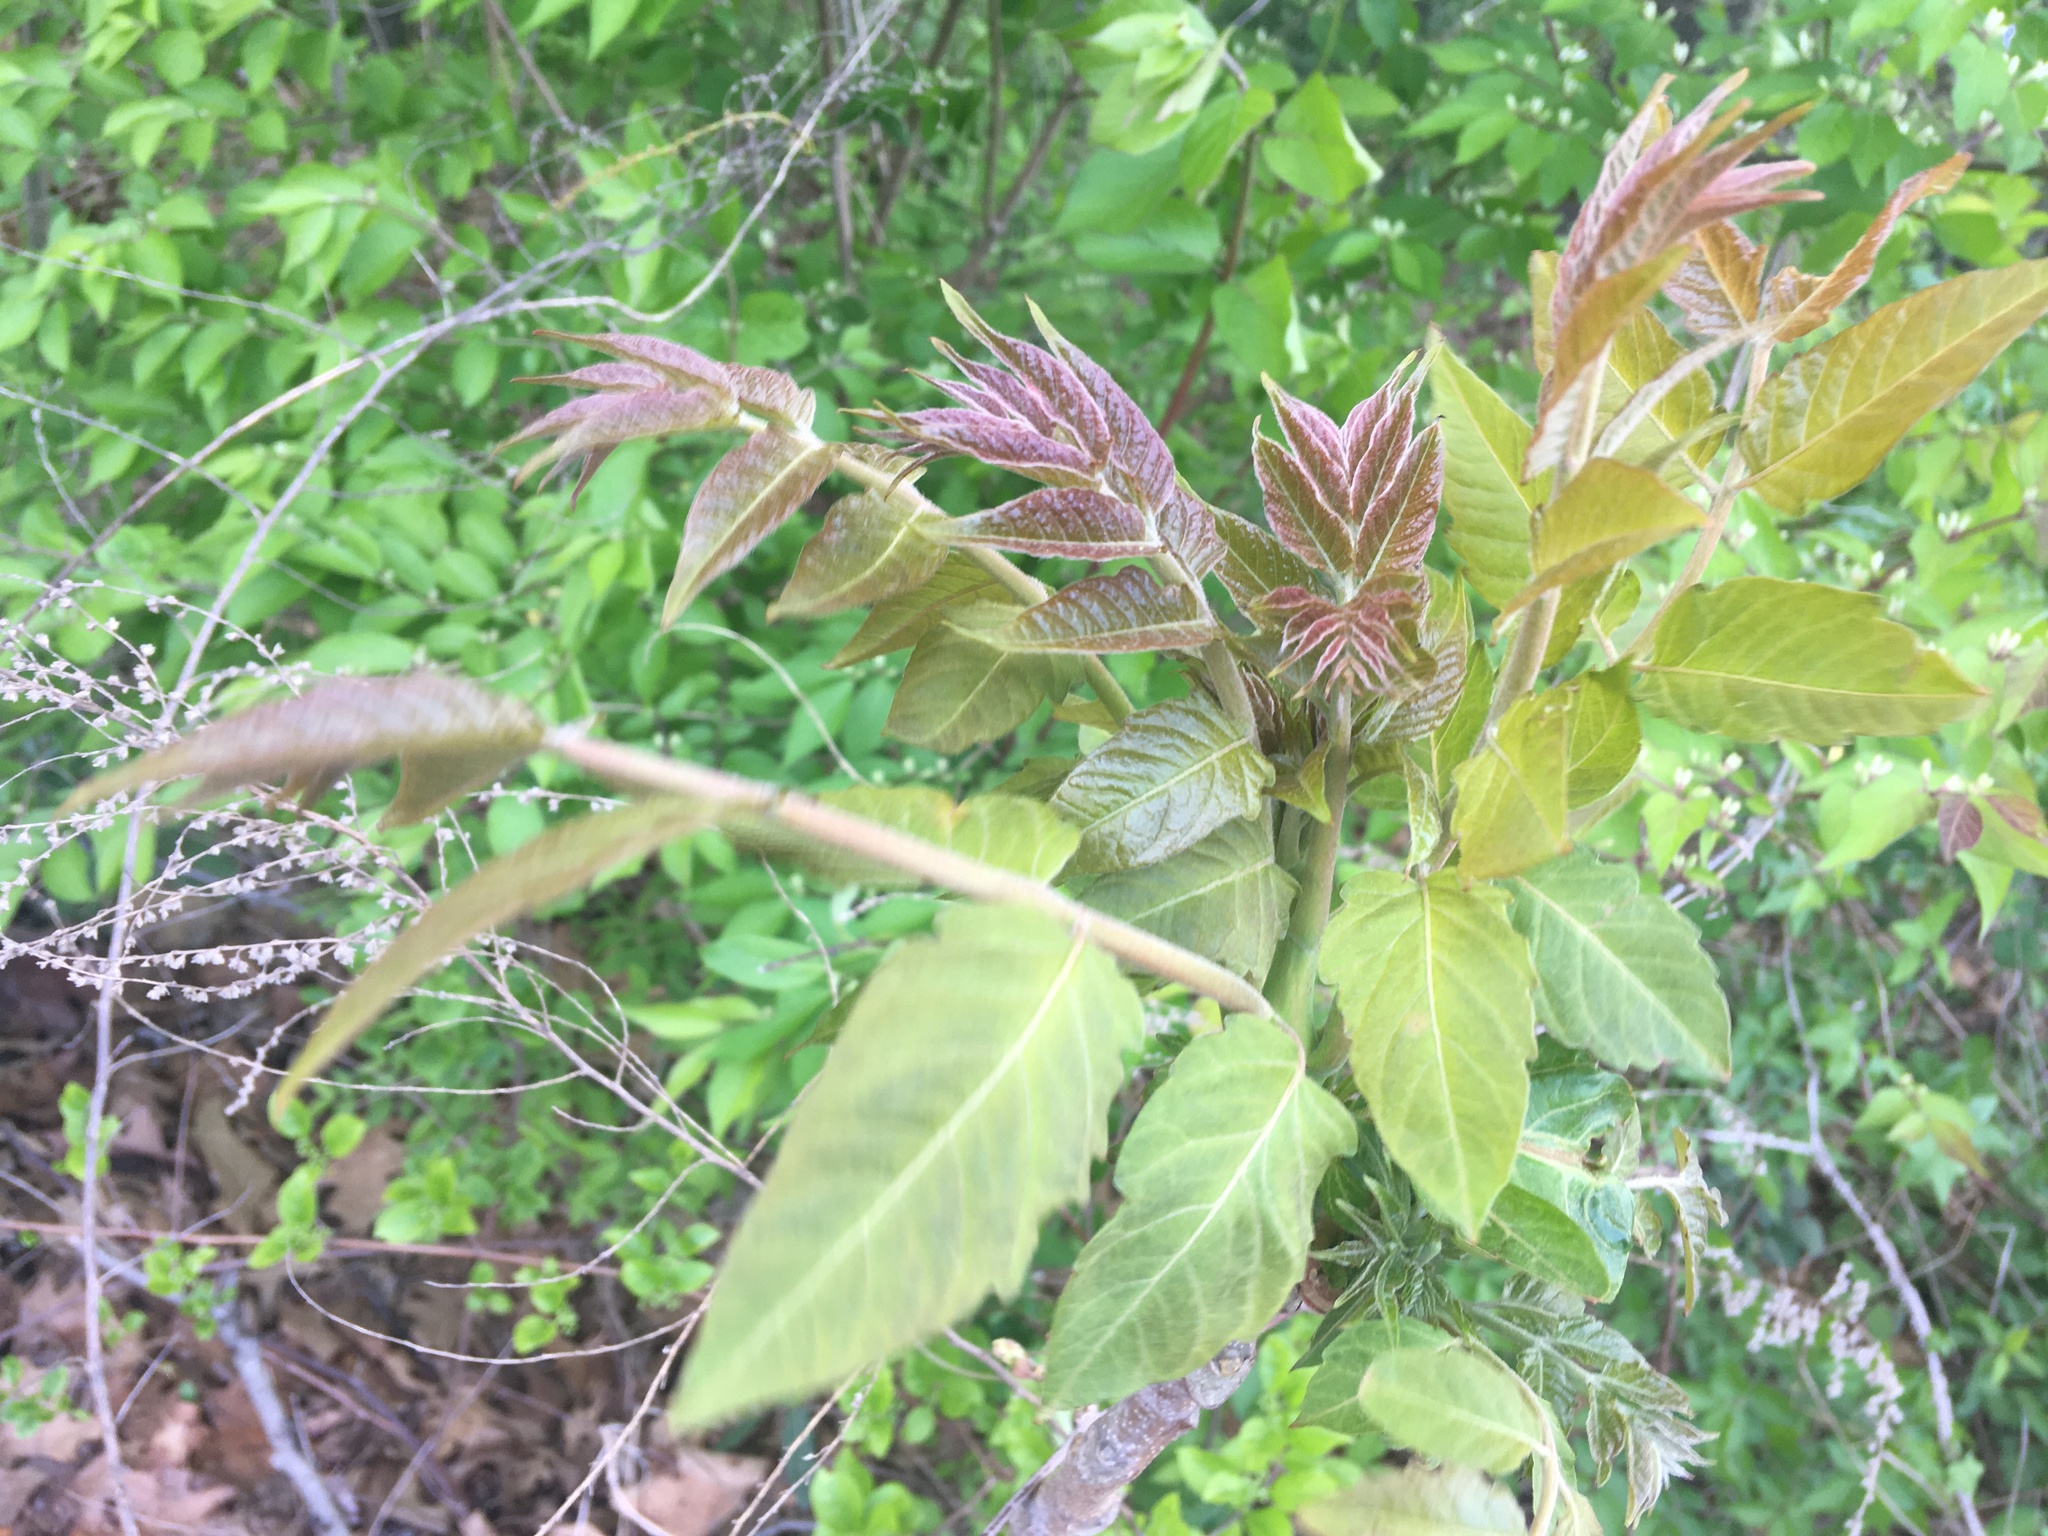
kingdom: Plantae
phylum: Tracheophyta
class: Magnoliopsida
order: Sapindales
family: Simaroubaceae
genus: Ailanthus
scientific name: Ailanthus altissima
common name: Tree-of-heaven
